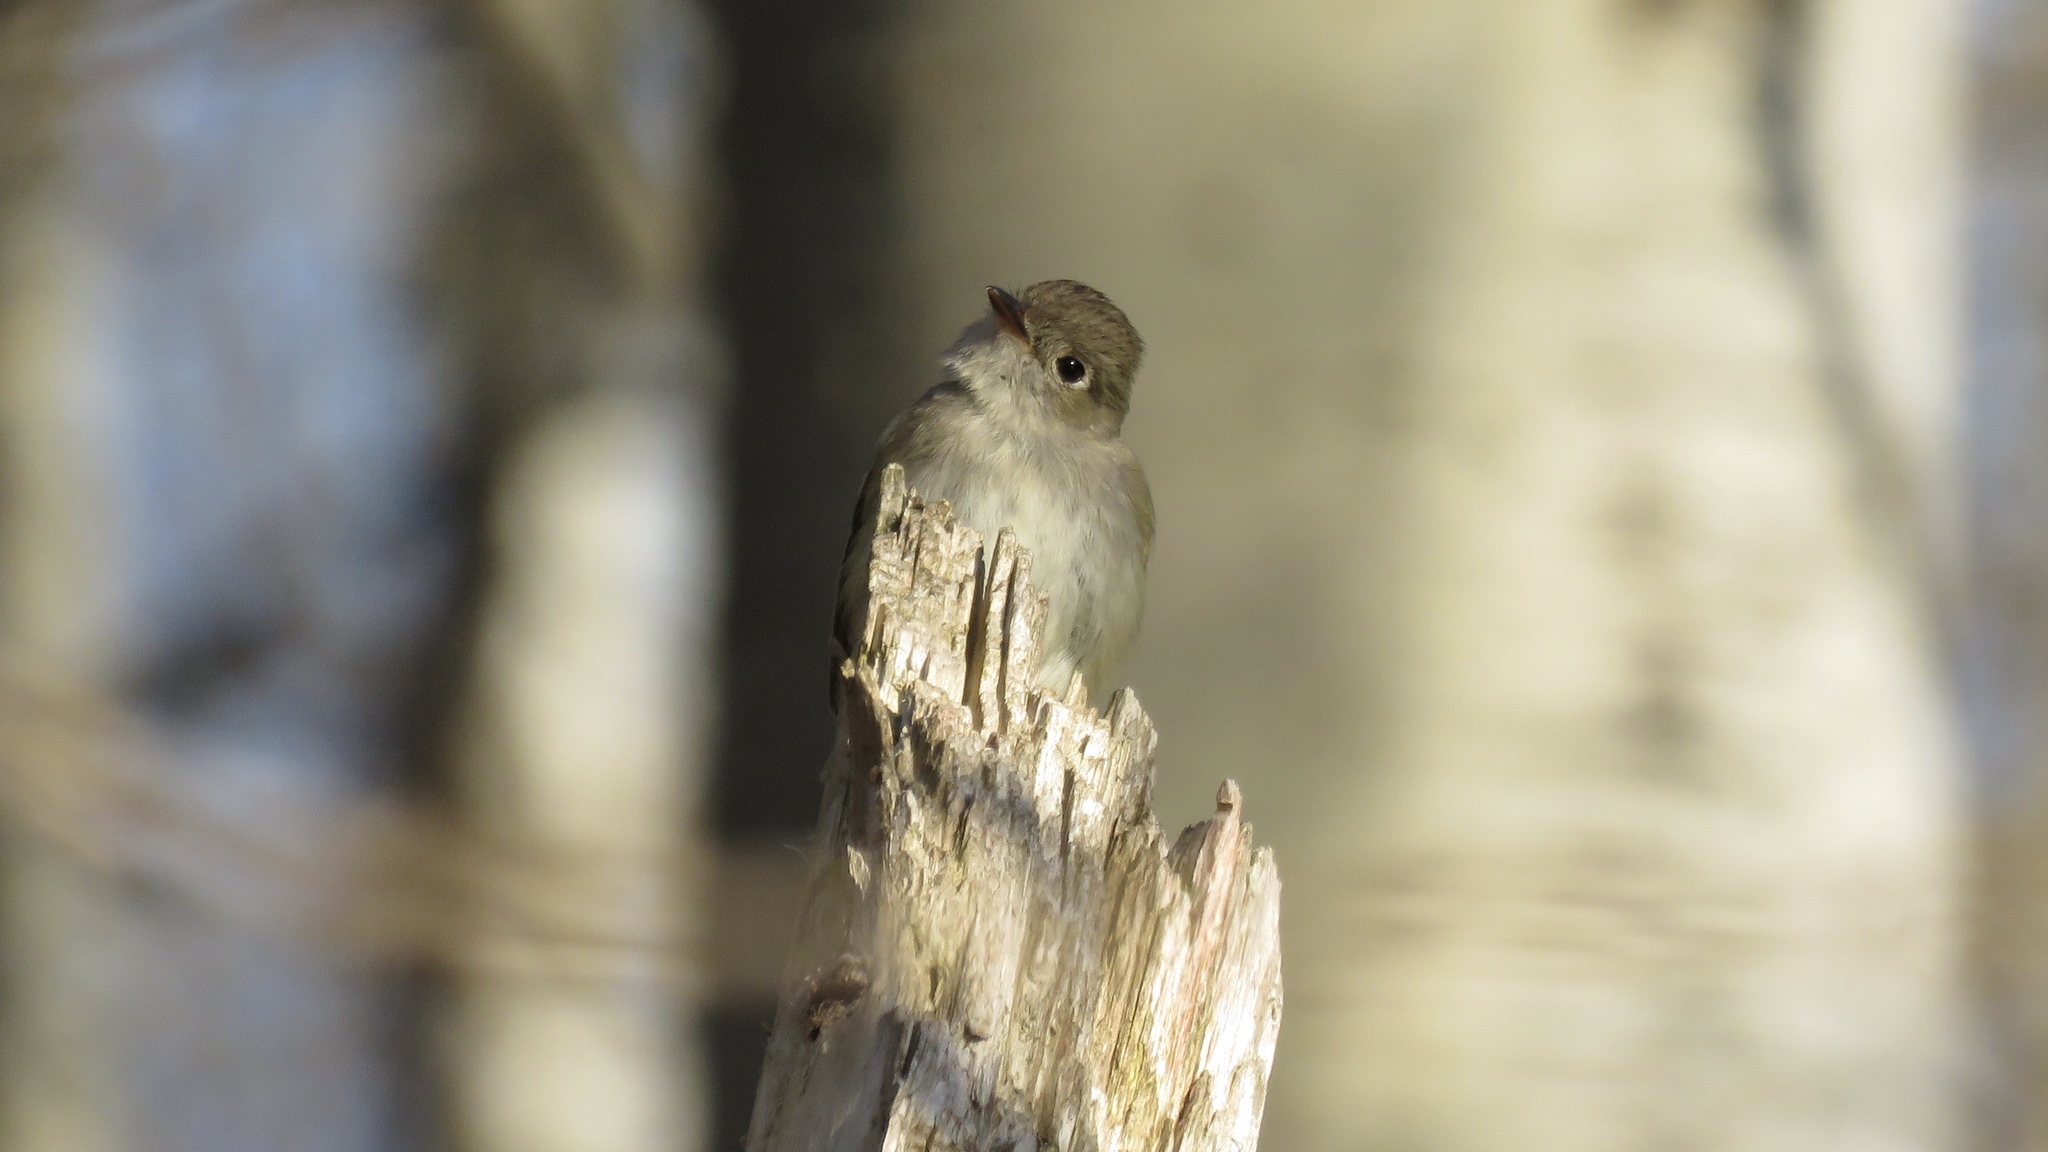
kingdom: Animalia
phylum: Chordata
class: Aves
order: Passeriformes
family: Tyrannidae
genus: Empidonax
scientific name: Empidonax minimus
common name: Least flycatcher
